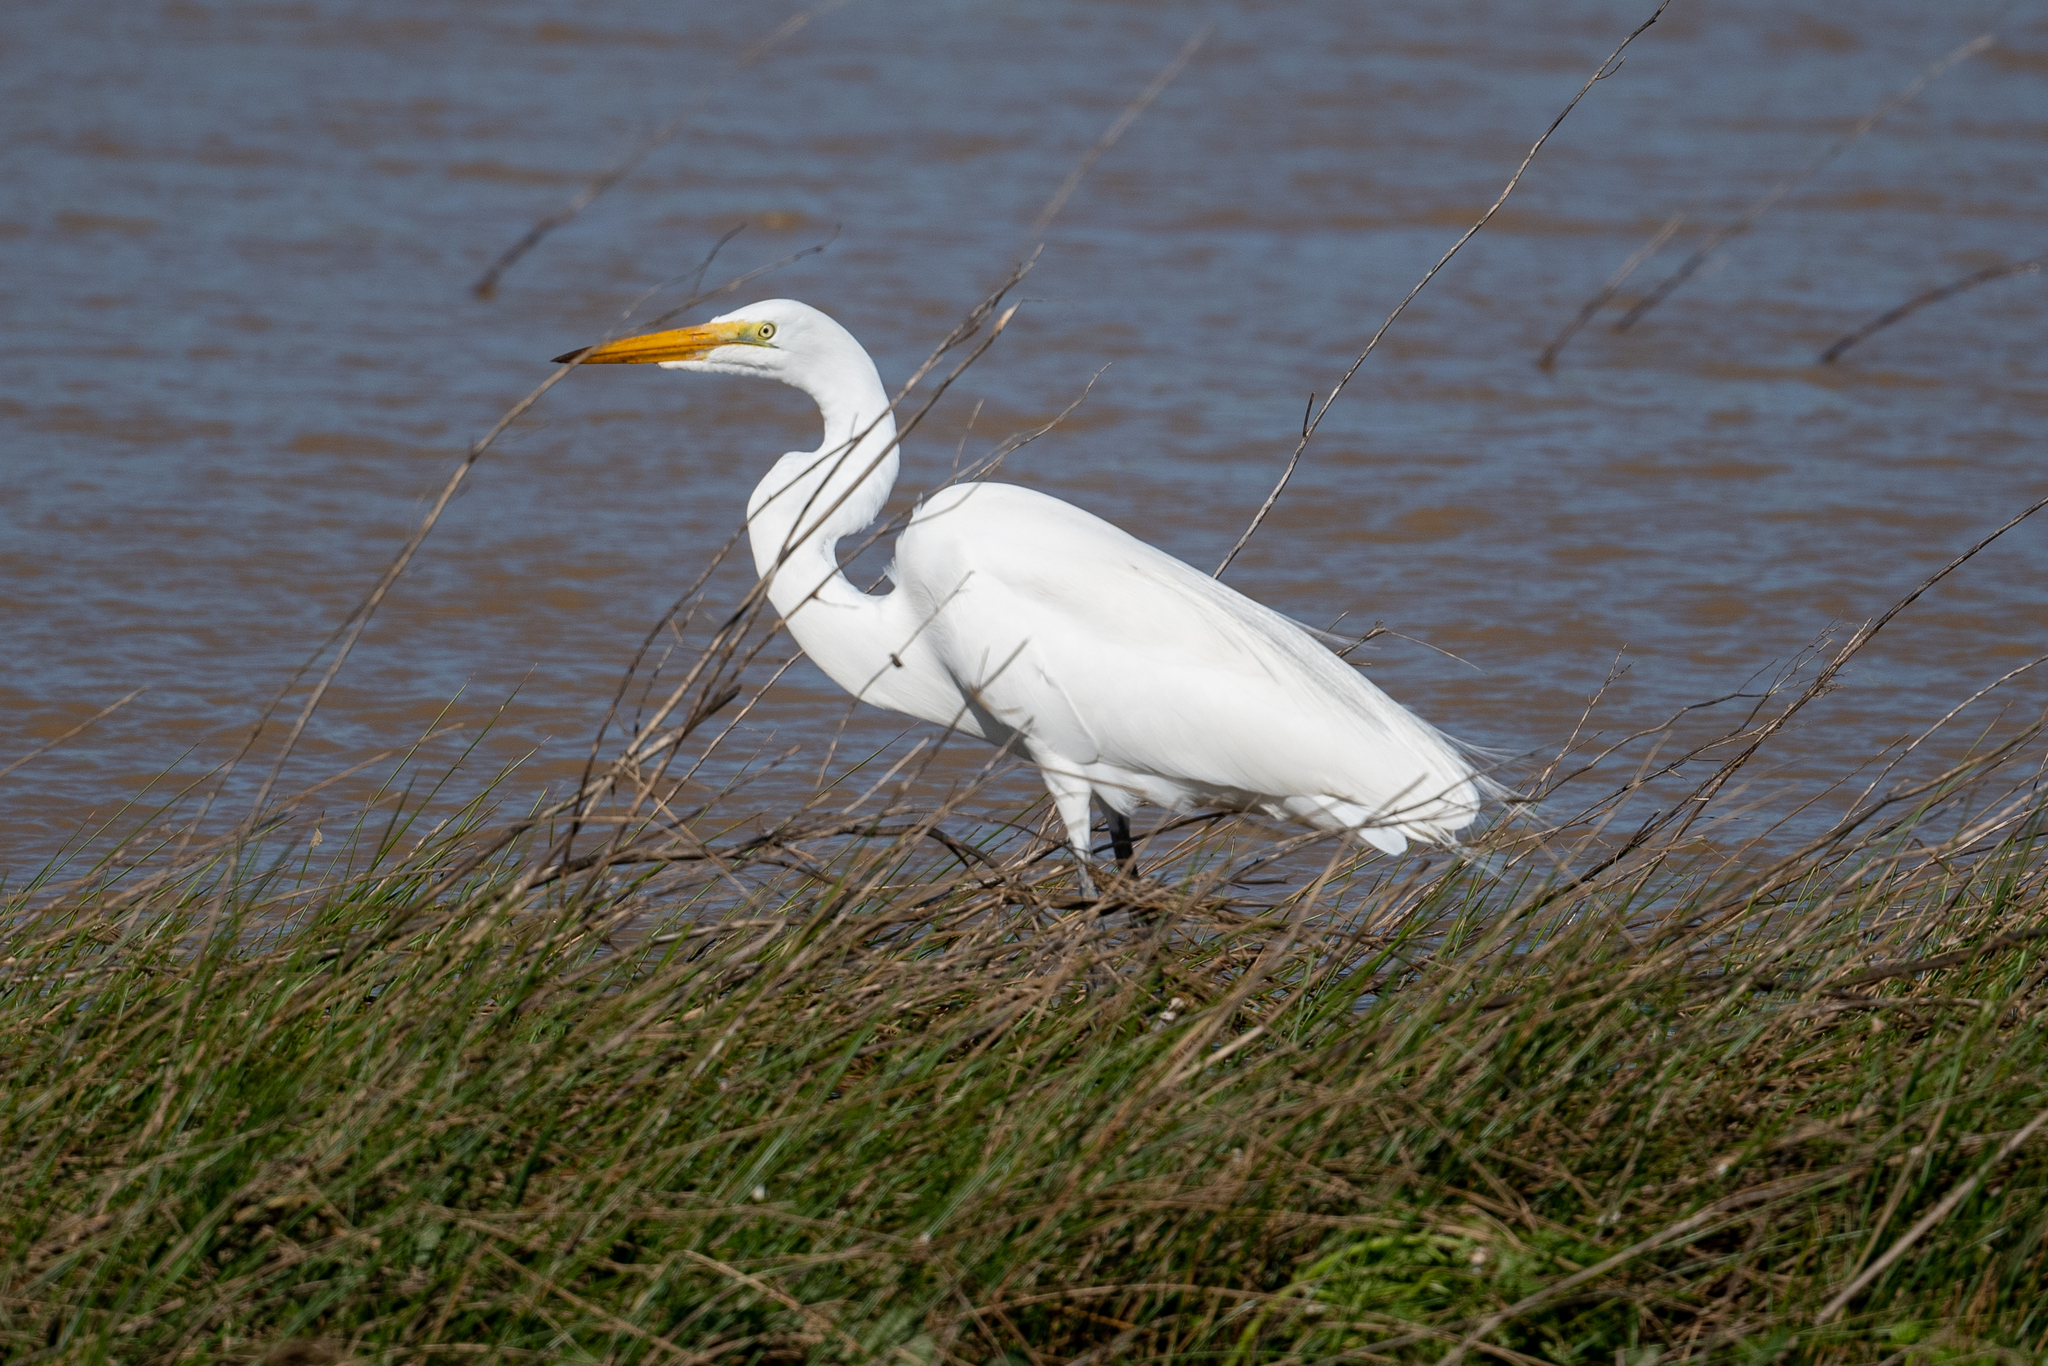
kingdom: Animalia
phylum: Chordata
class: Aves
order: Pelecaniformes
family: Ardeidae
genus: Ardea
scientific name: Ardea alba
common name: Great egret
